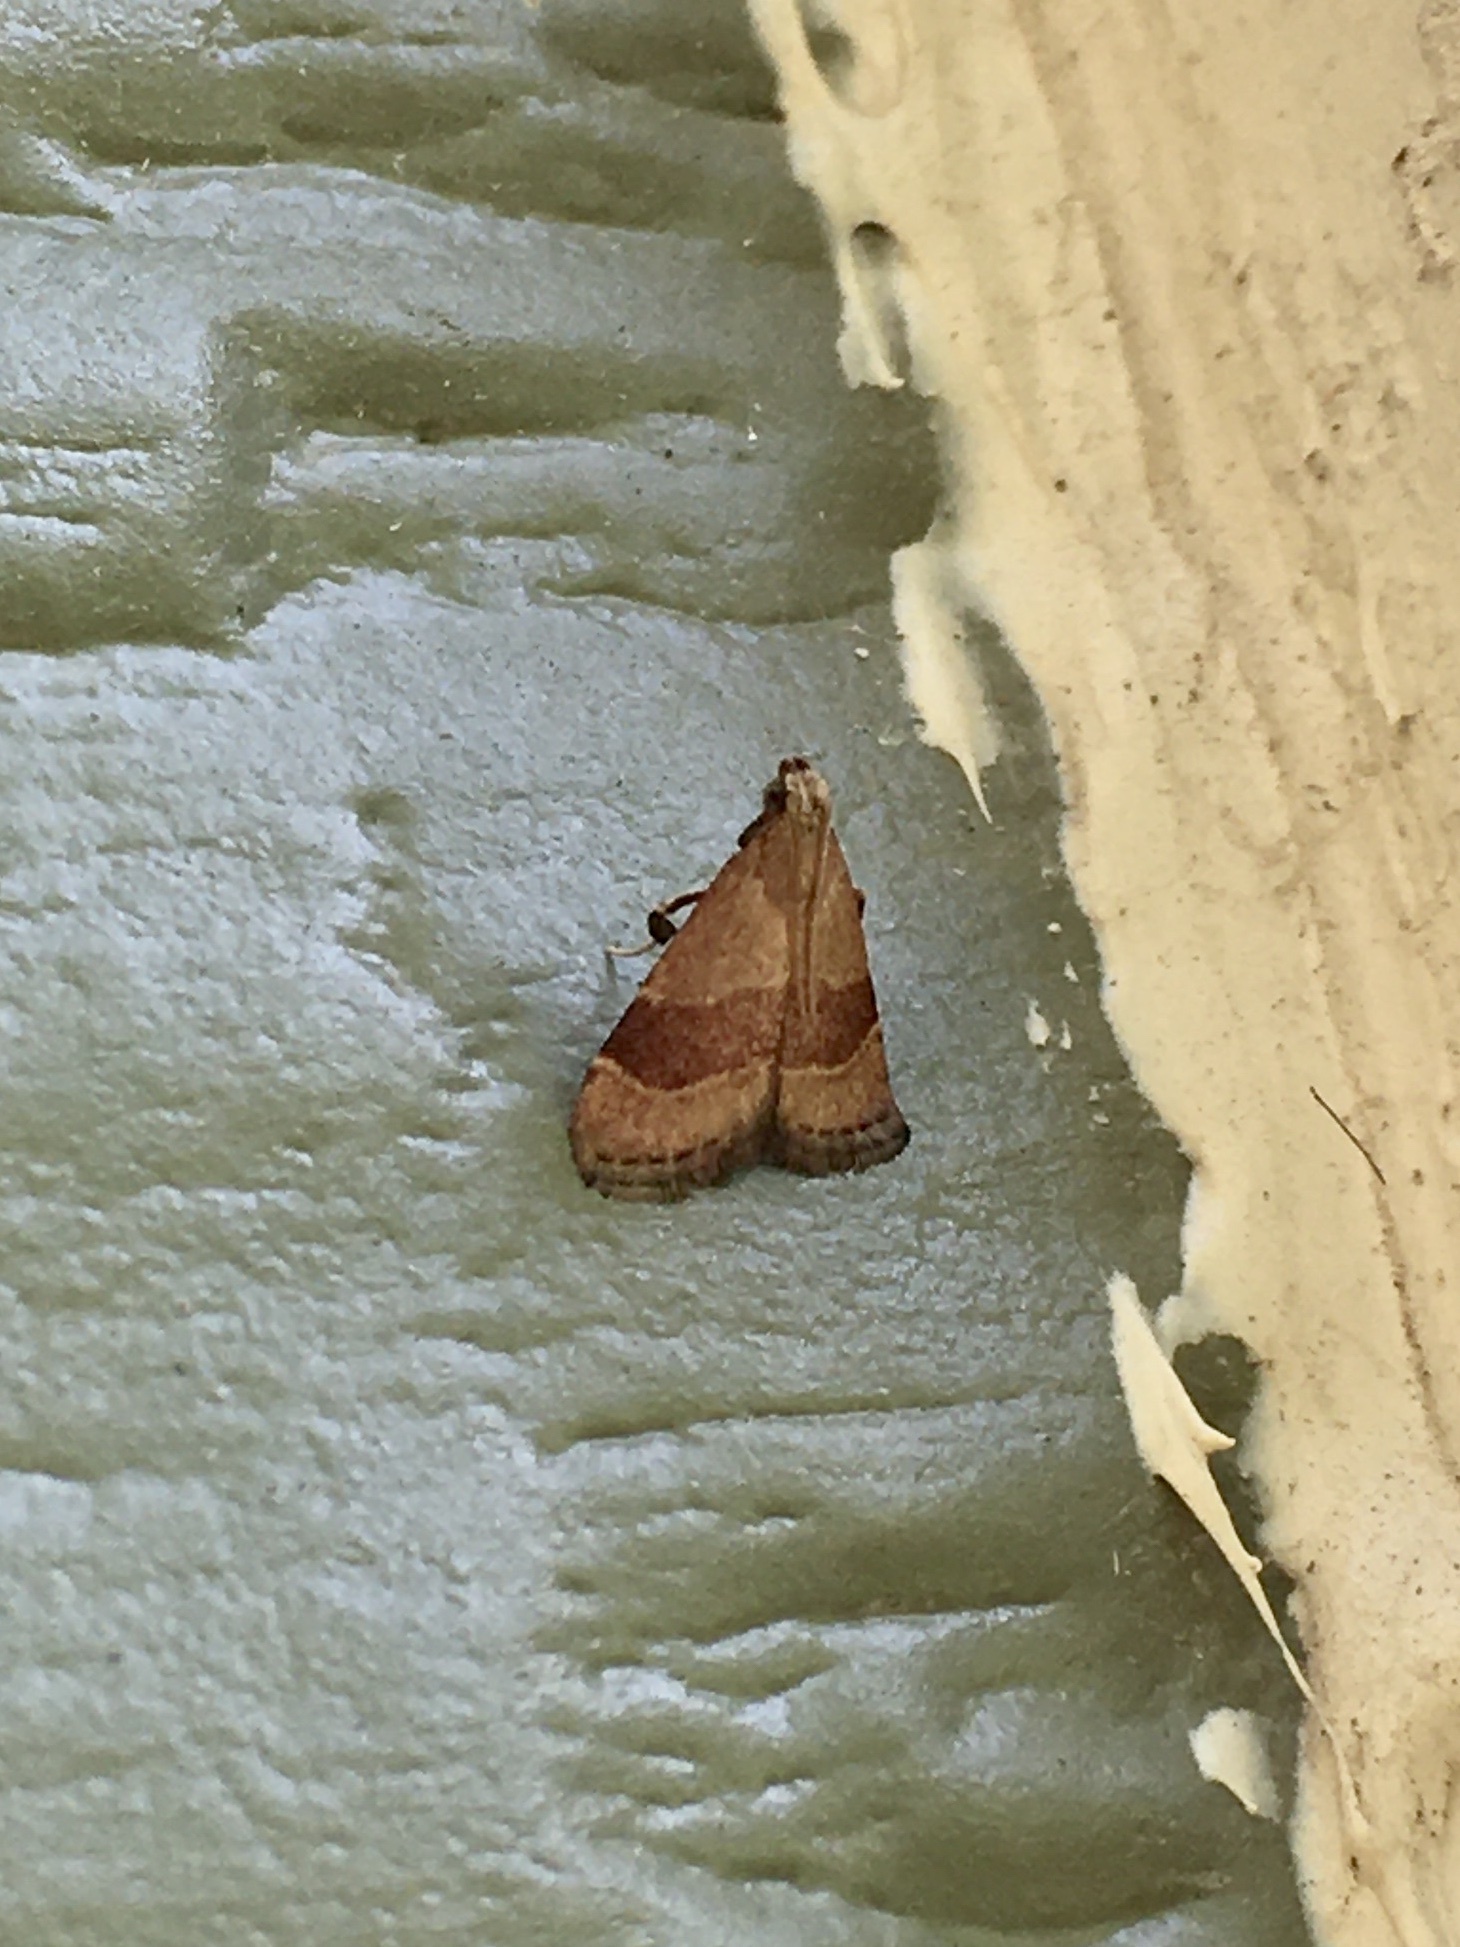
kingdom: Animalia
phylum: Arthropoda
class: Insecta
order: Lepidoptera
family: Pyralidae
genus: Arta
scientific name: Arta statalis
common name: Posturing arta moth
